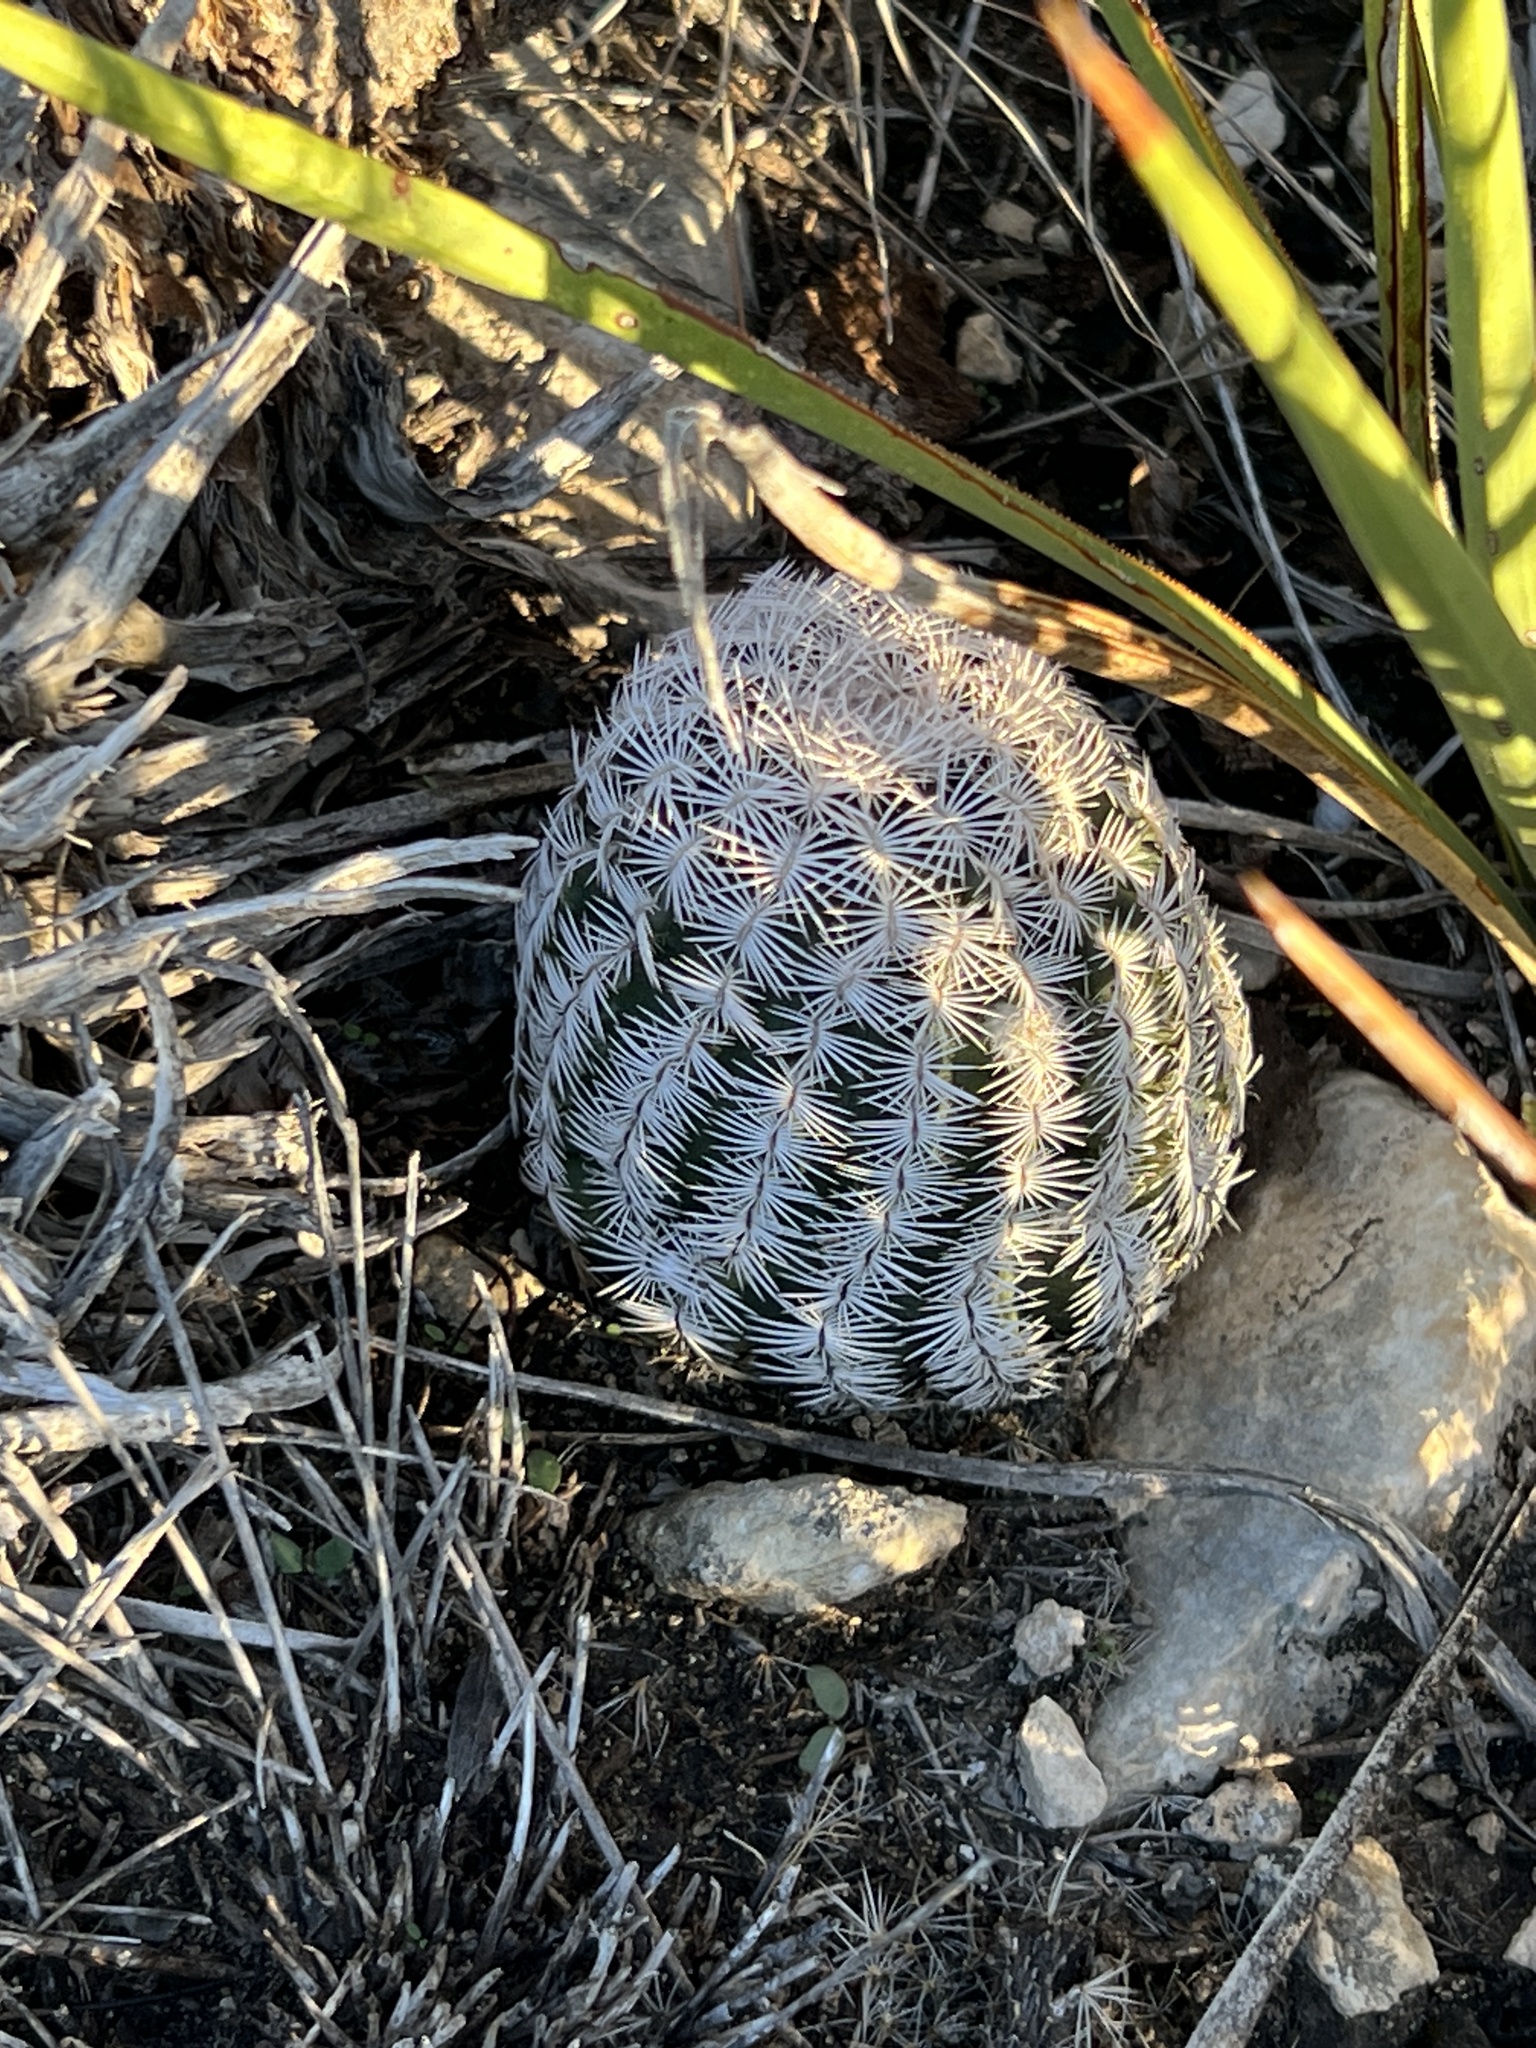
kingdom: Plantae
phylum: Tracheophyta
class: Magnoliopsida
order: Caryophyllales
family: Cactaceae
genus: Echinocereus
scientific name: Echinocereus reichenbachii
